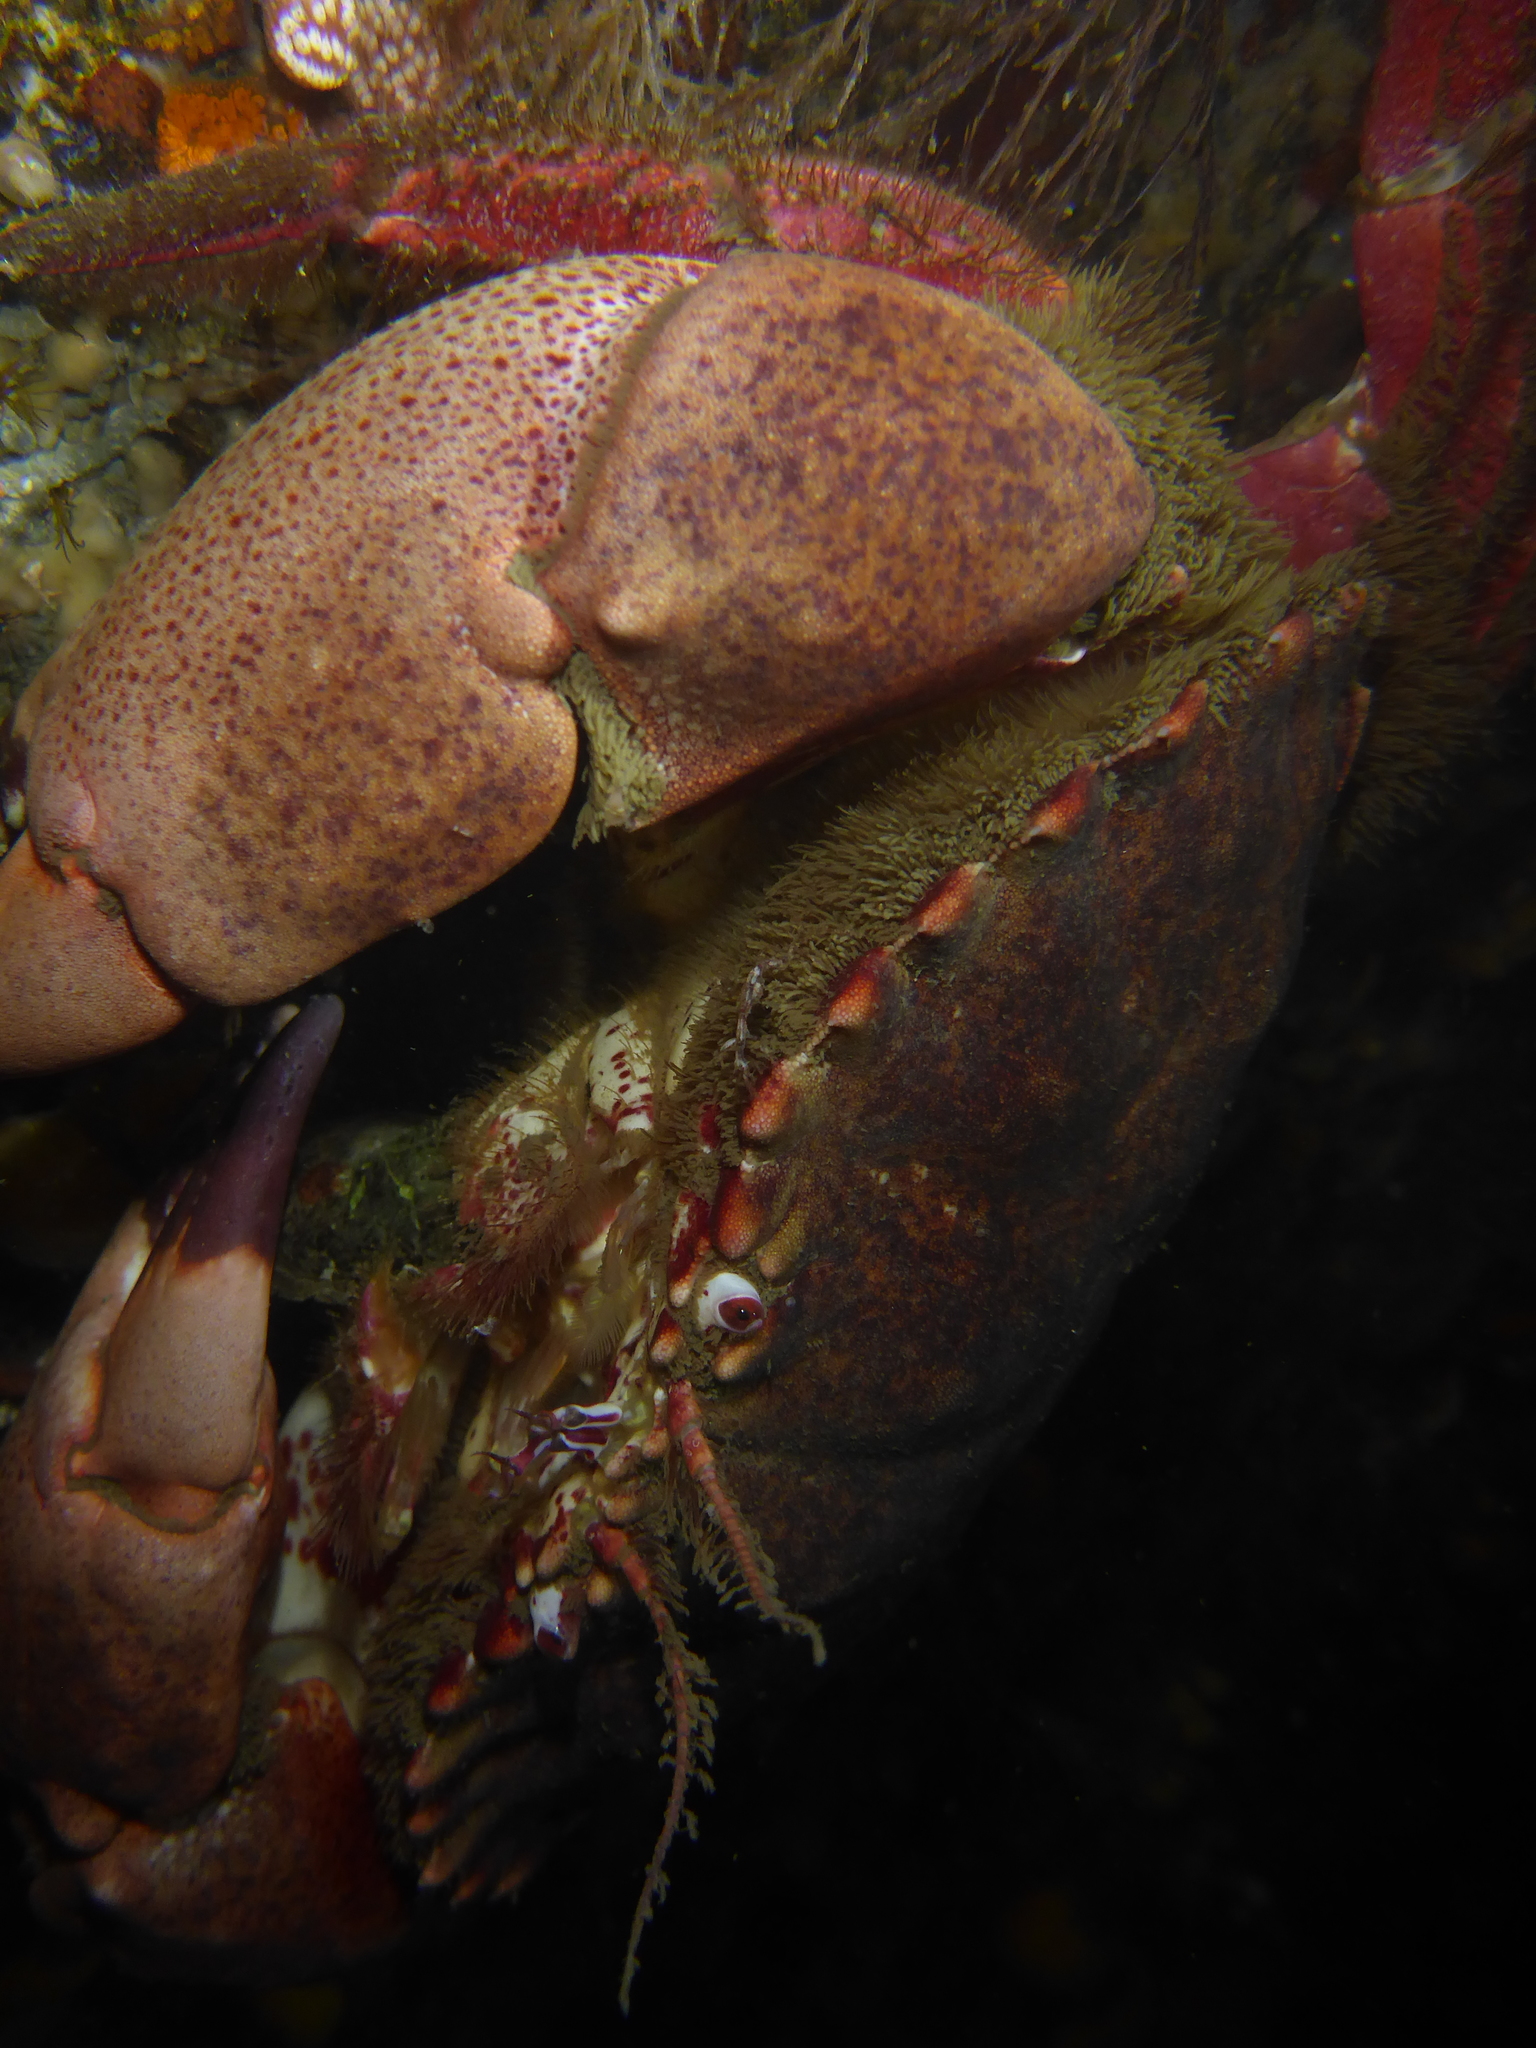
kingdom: Animalia
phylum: Arthropoda
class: Malacostraca
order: Decapoda
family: Cancridae
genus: Romaleon
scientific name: Romaleon antennarium
